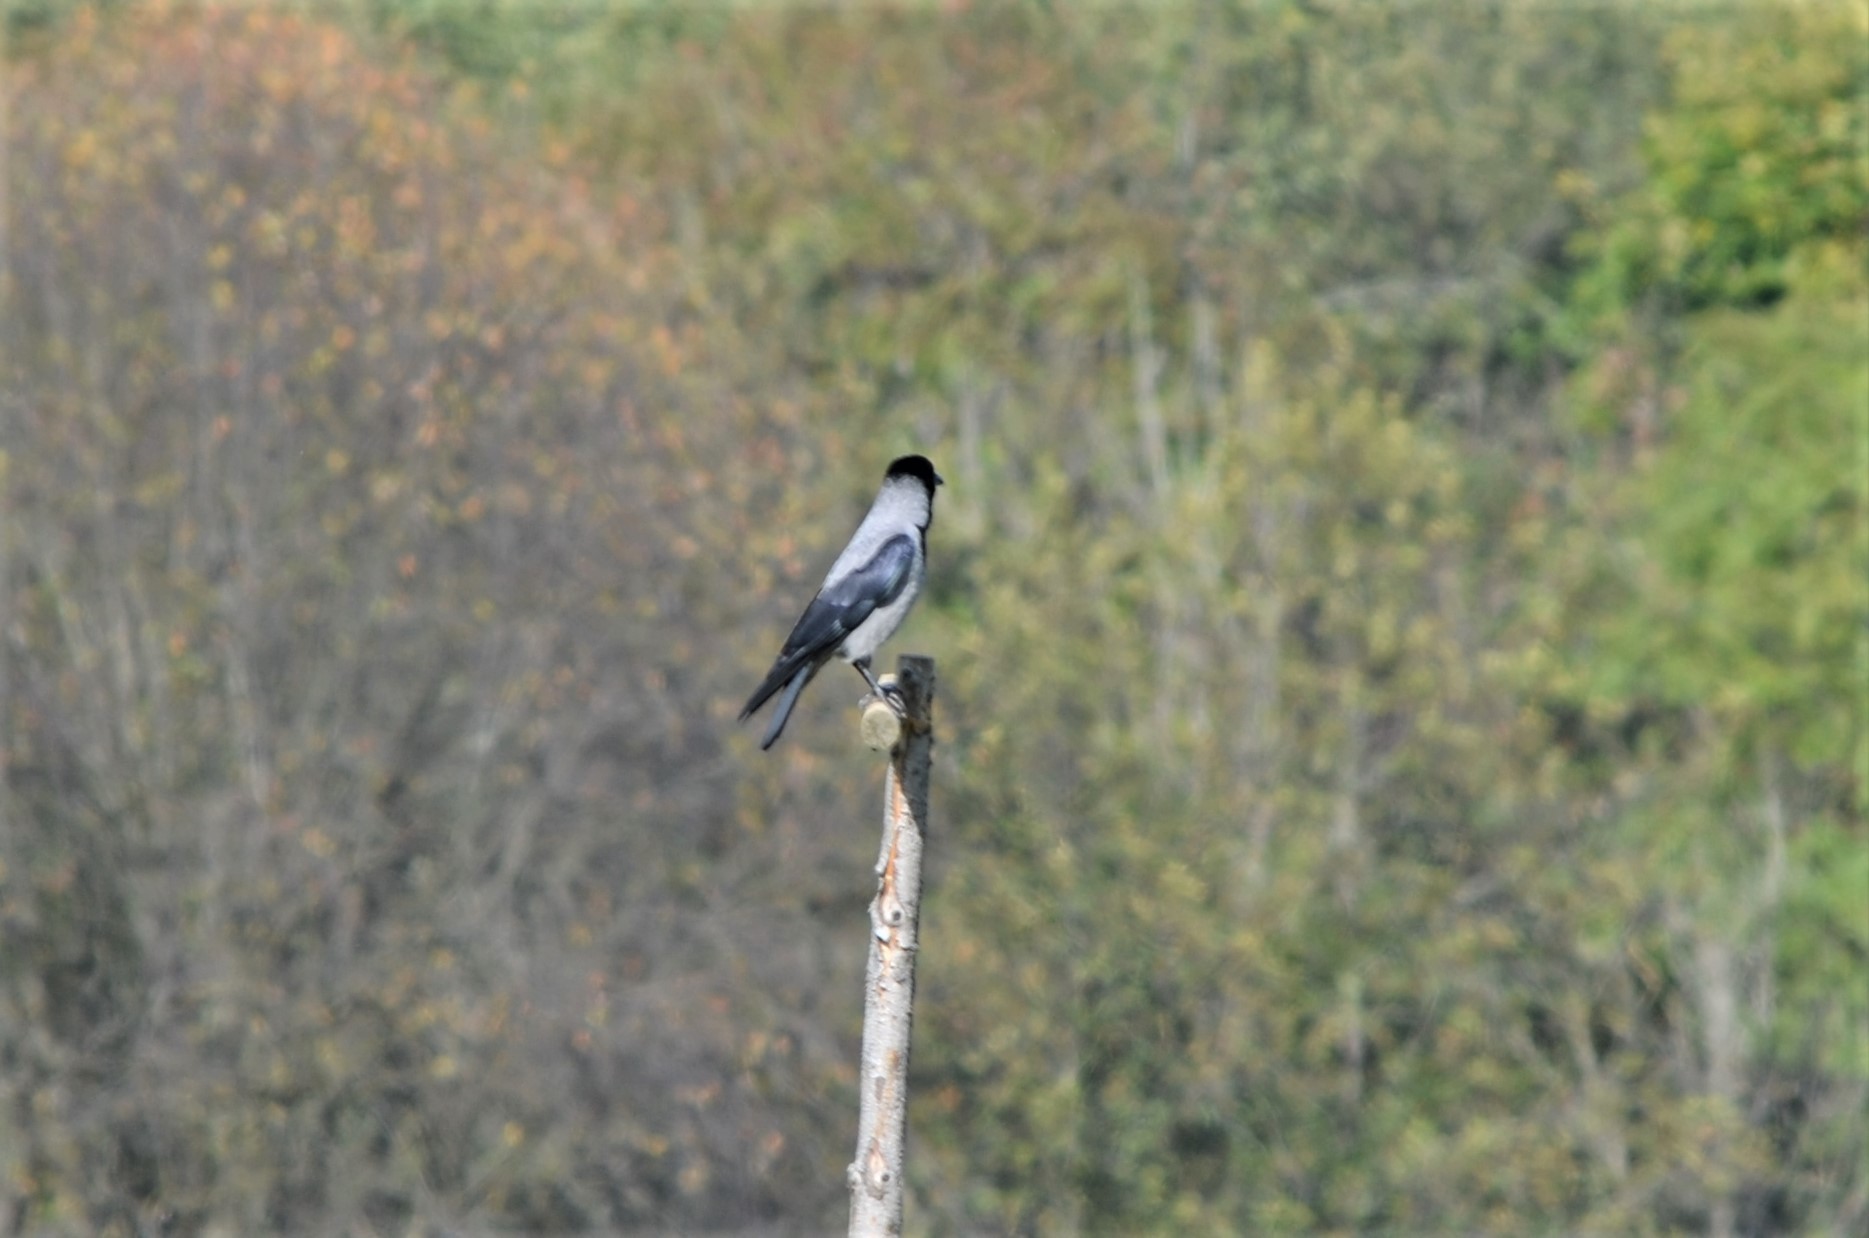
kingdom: Animalia
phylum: Chordata
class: Aves
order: Passeriformes
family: Corvidae
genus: Corvus
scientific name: Corvus cornix
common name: Hooded crow
